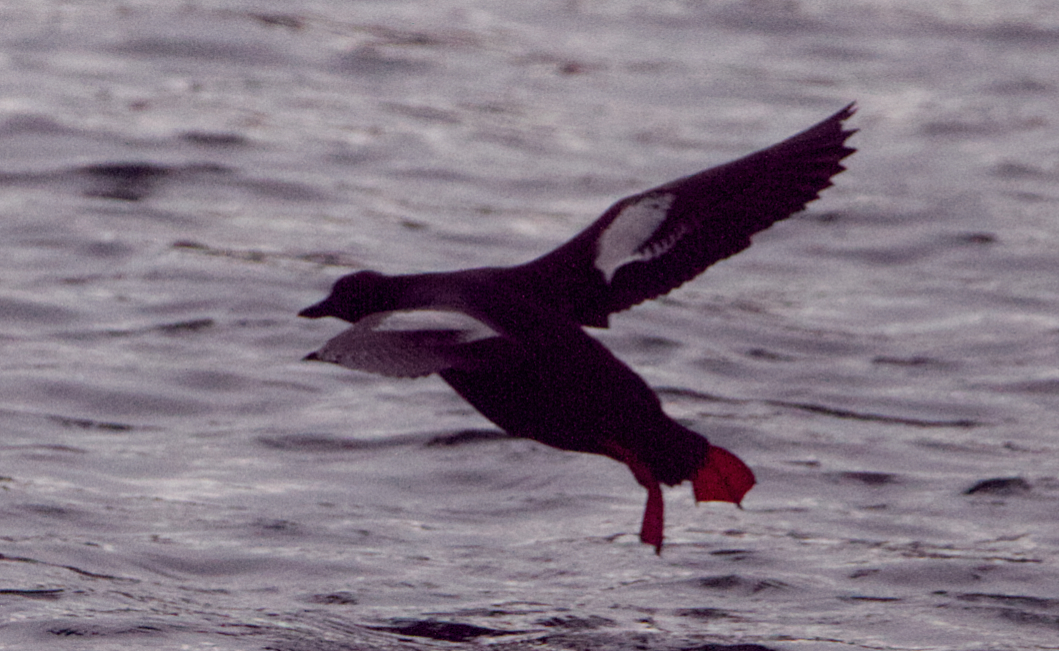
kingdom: Animalia
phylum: Chordata
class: Aves
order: Charadriiformes
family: Alcidae
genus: Cepphus
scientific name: Cepphus columba
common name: Pigeon guillemot
